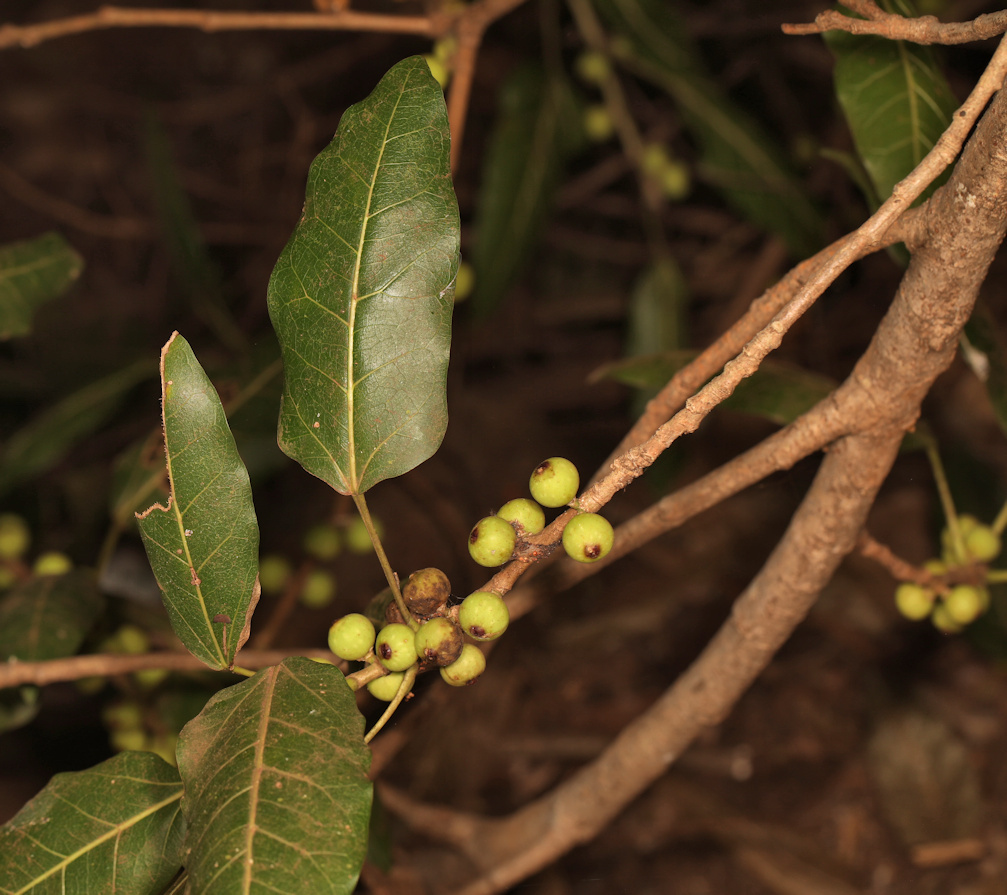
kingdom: Plantae
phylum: Tracheophyta
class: Magnoliopsida
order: Rosales
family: Moraceae
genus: Ficus
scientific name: Ficus ingens
